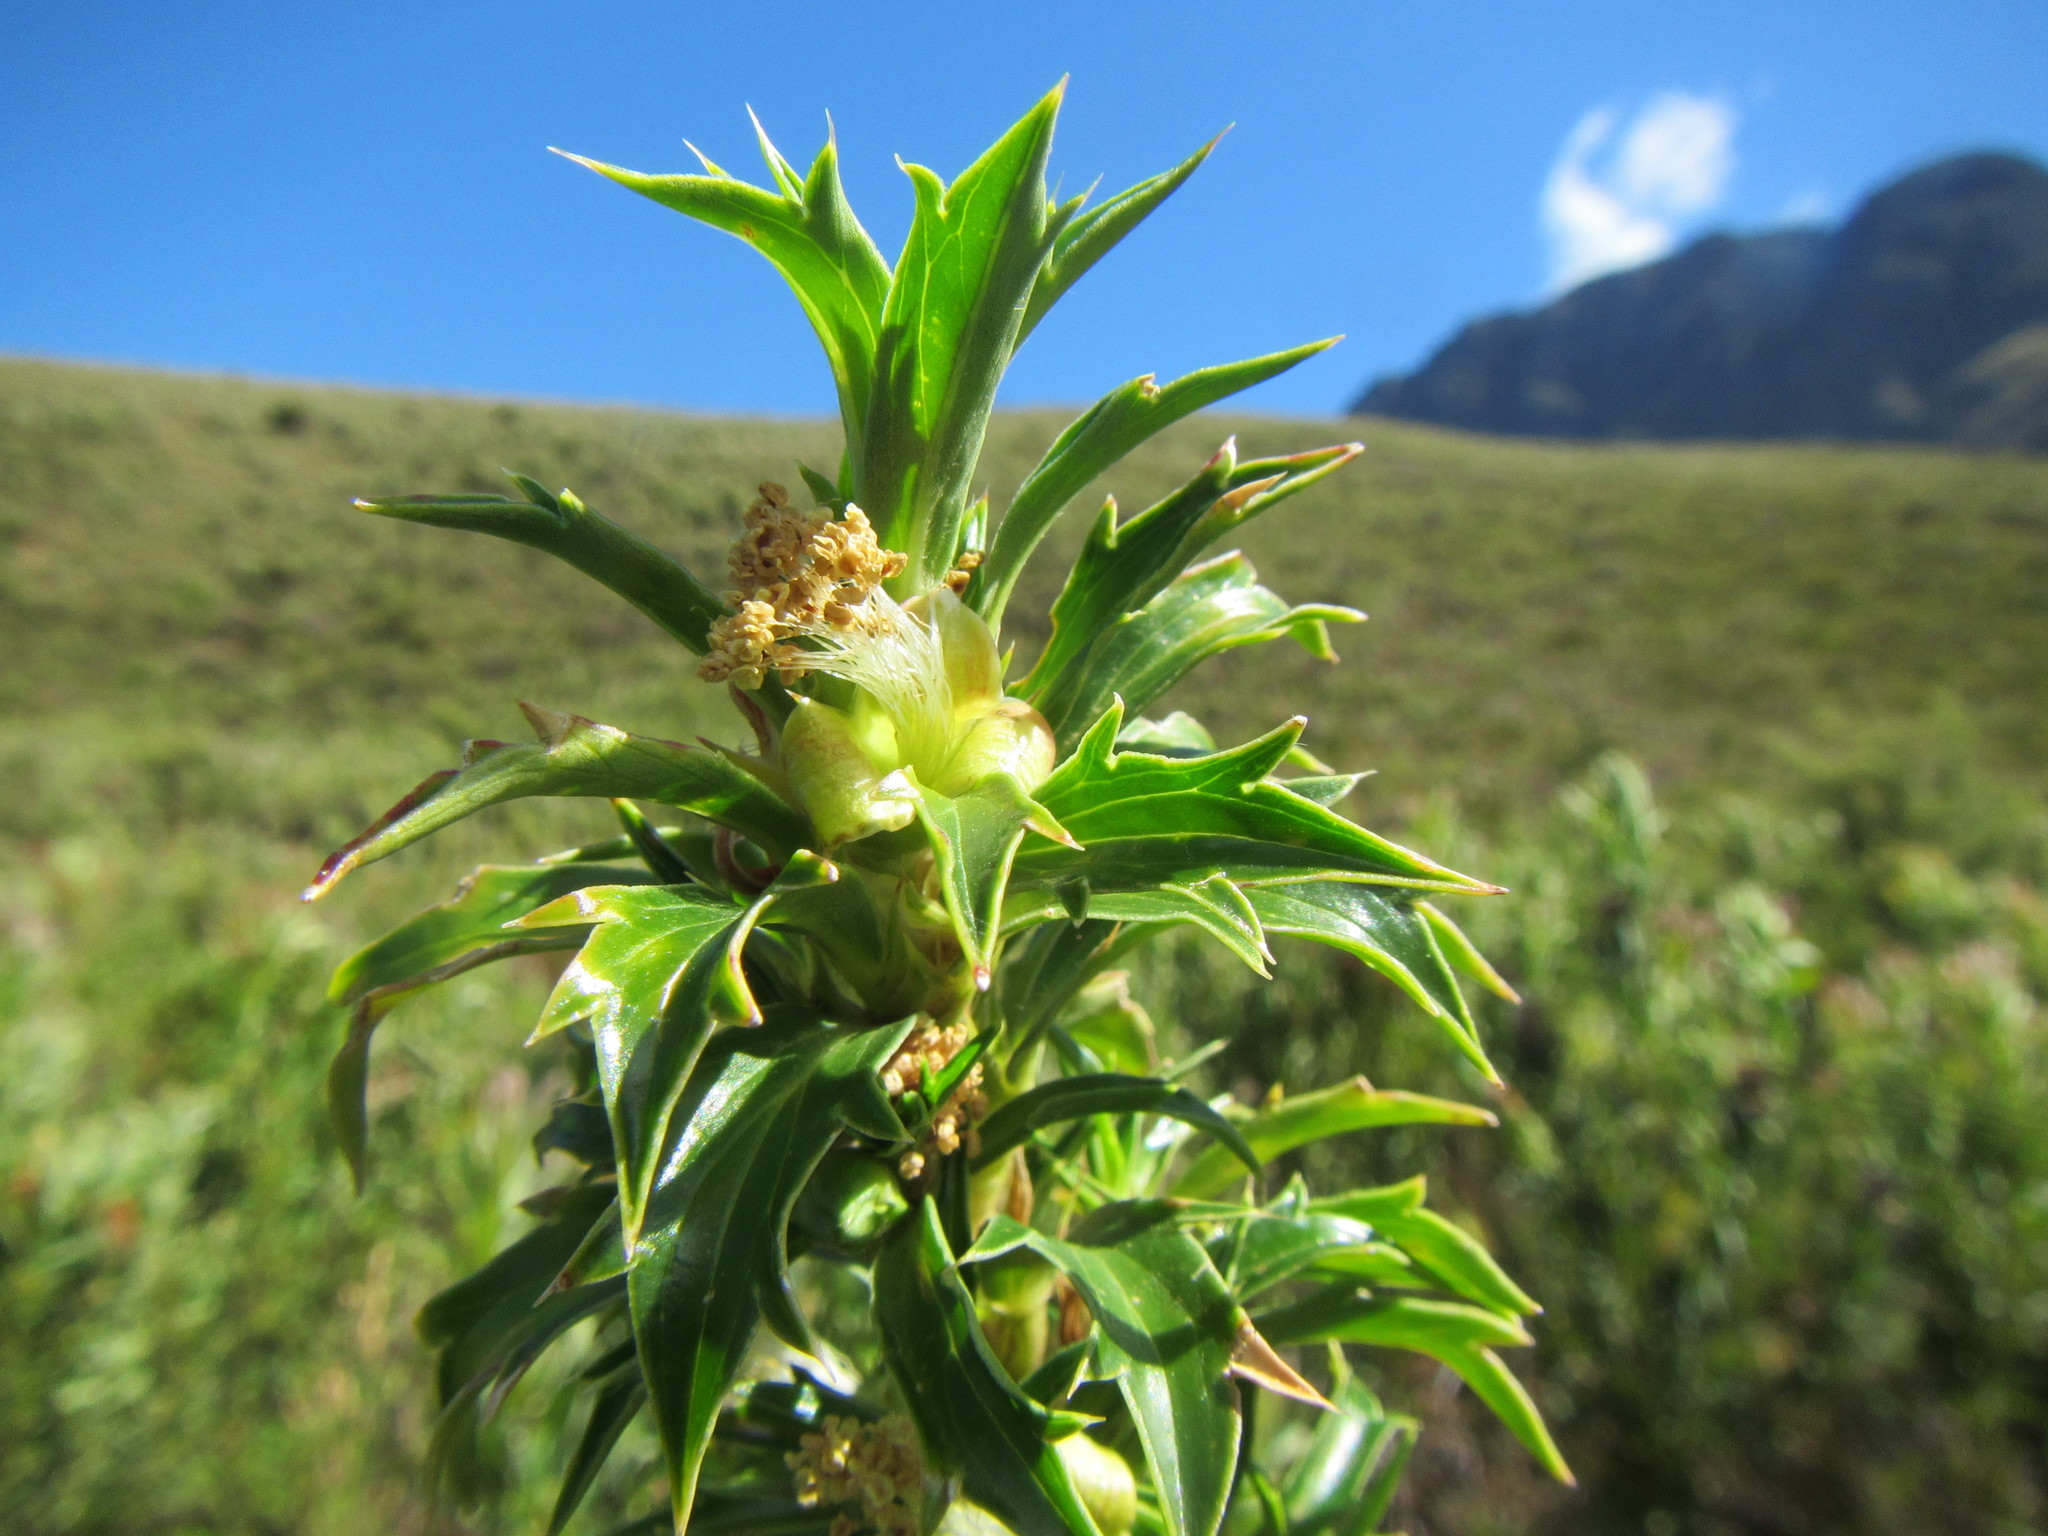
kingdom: Plantae
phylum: Tracheophyta
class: Magnoliopsida
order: Rosales
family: Rosaceae
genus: Cliffortia
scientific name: Cliffortia phillipsii
